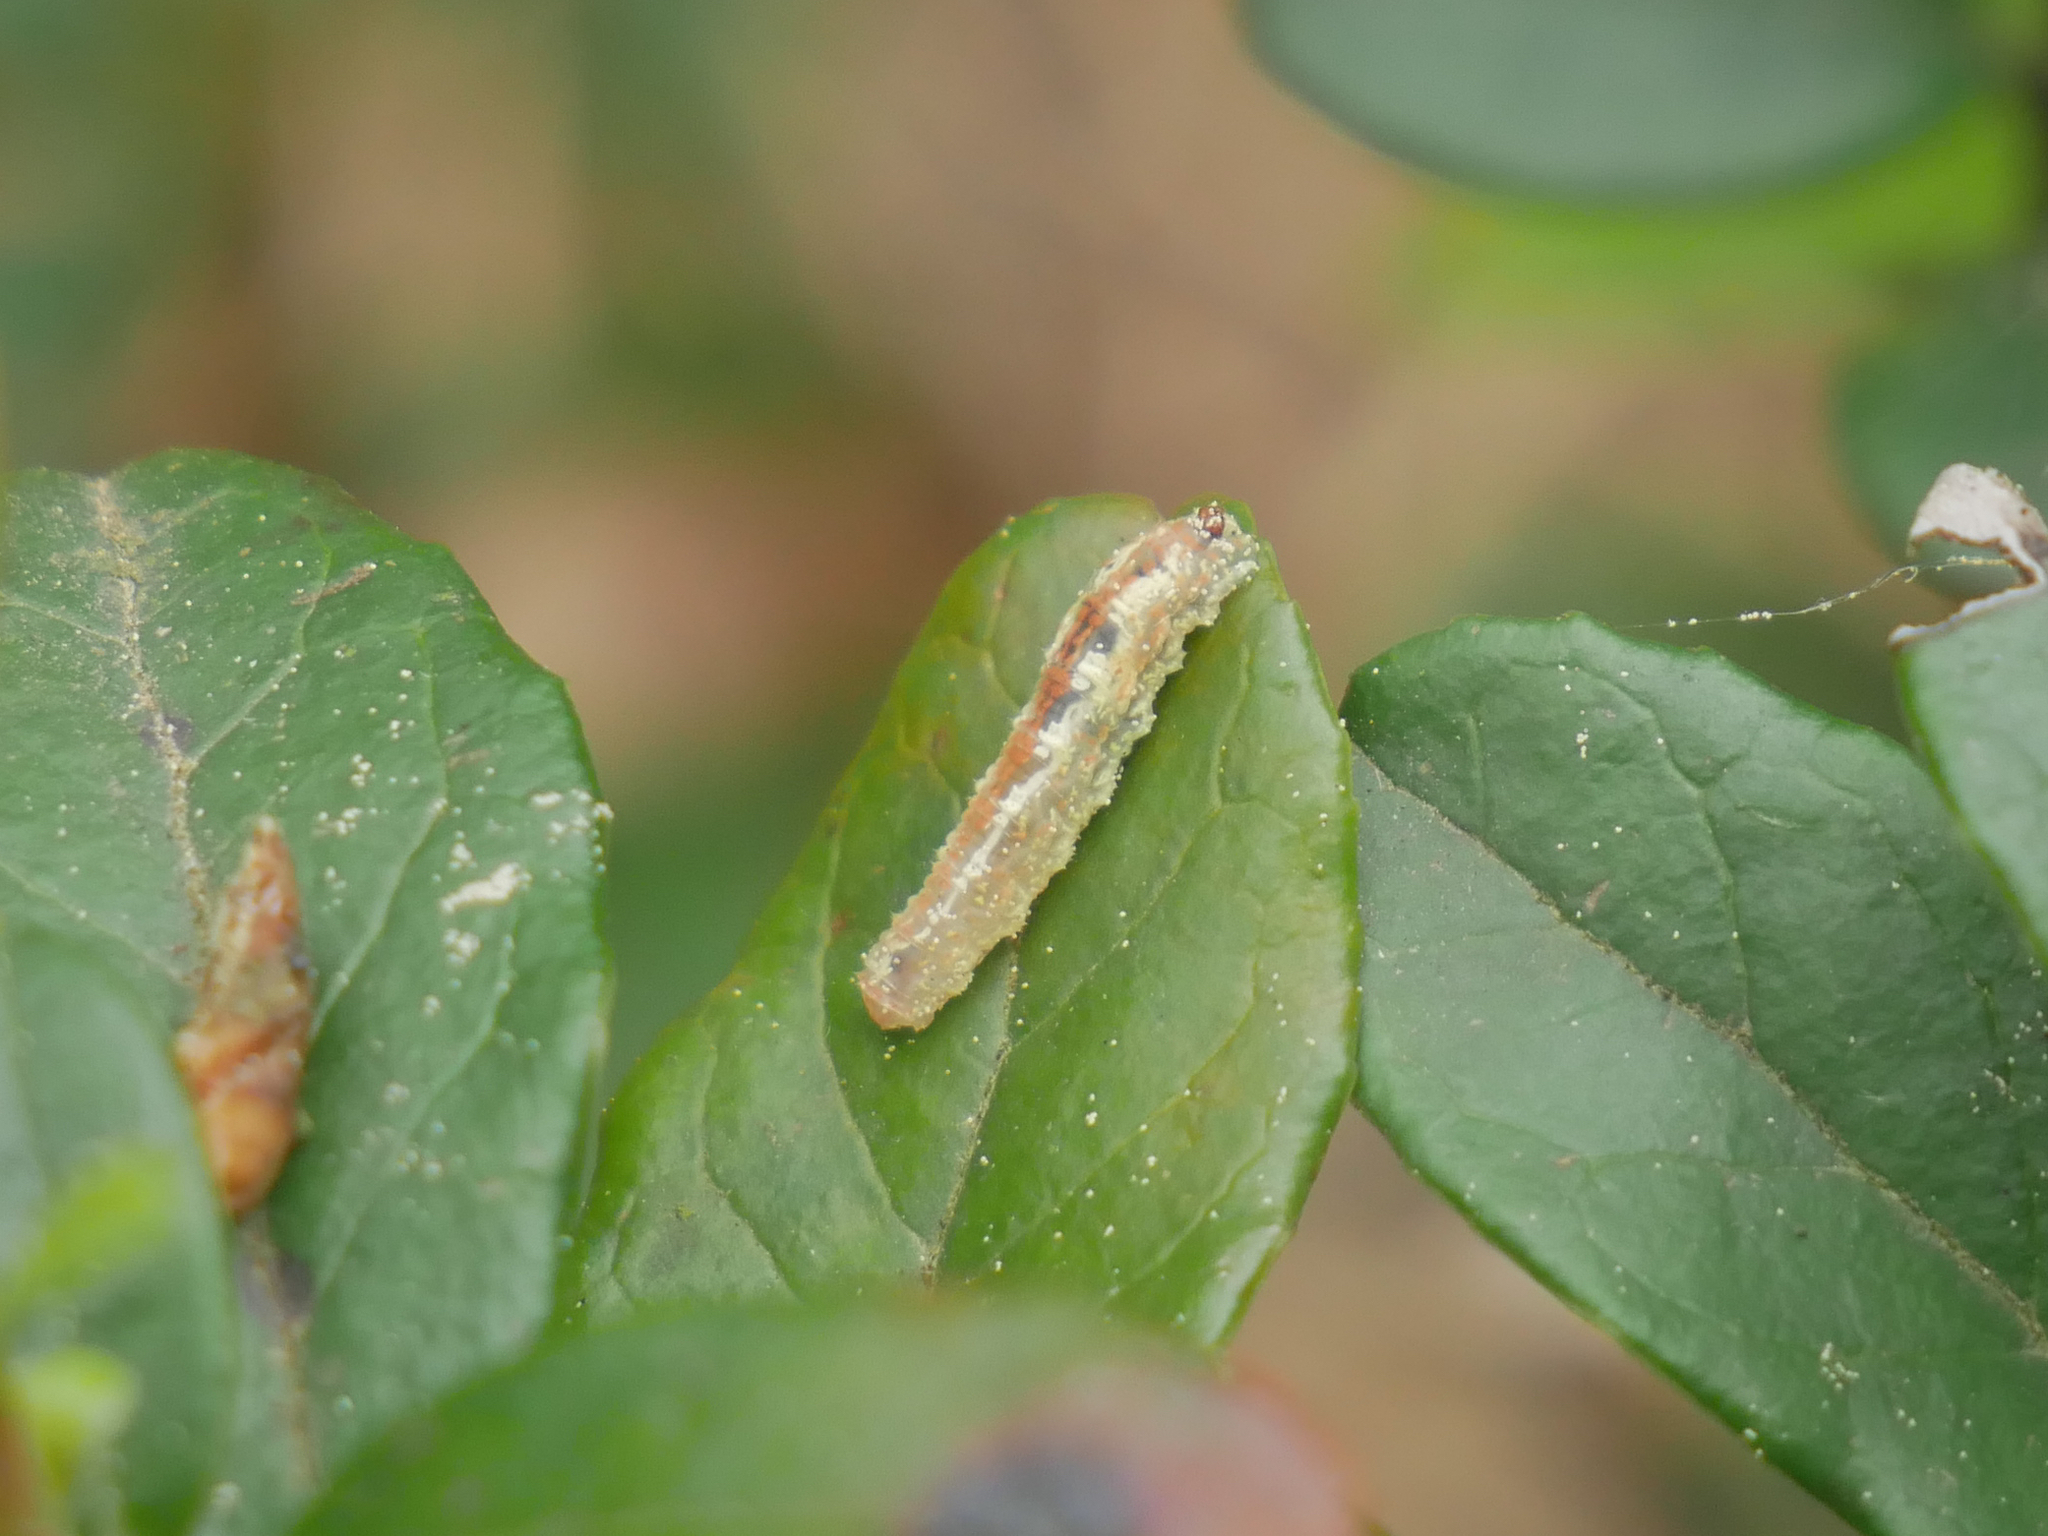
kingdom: Animalia
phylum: Arthropoda
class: Insecta
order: Diptera
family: Syrphidae
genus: Syrphus
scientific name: Syrphus
